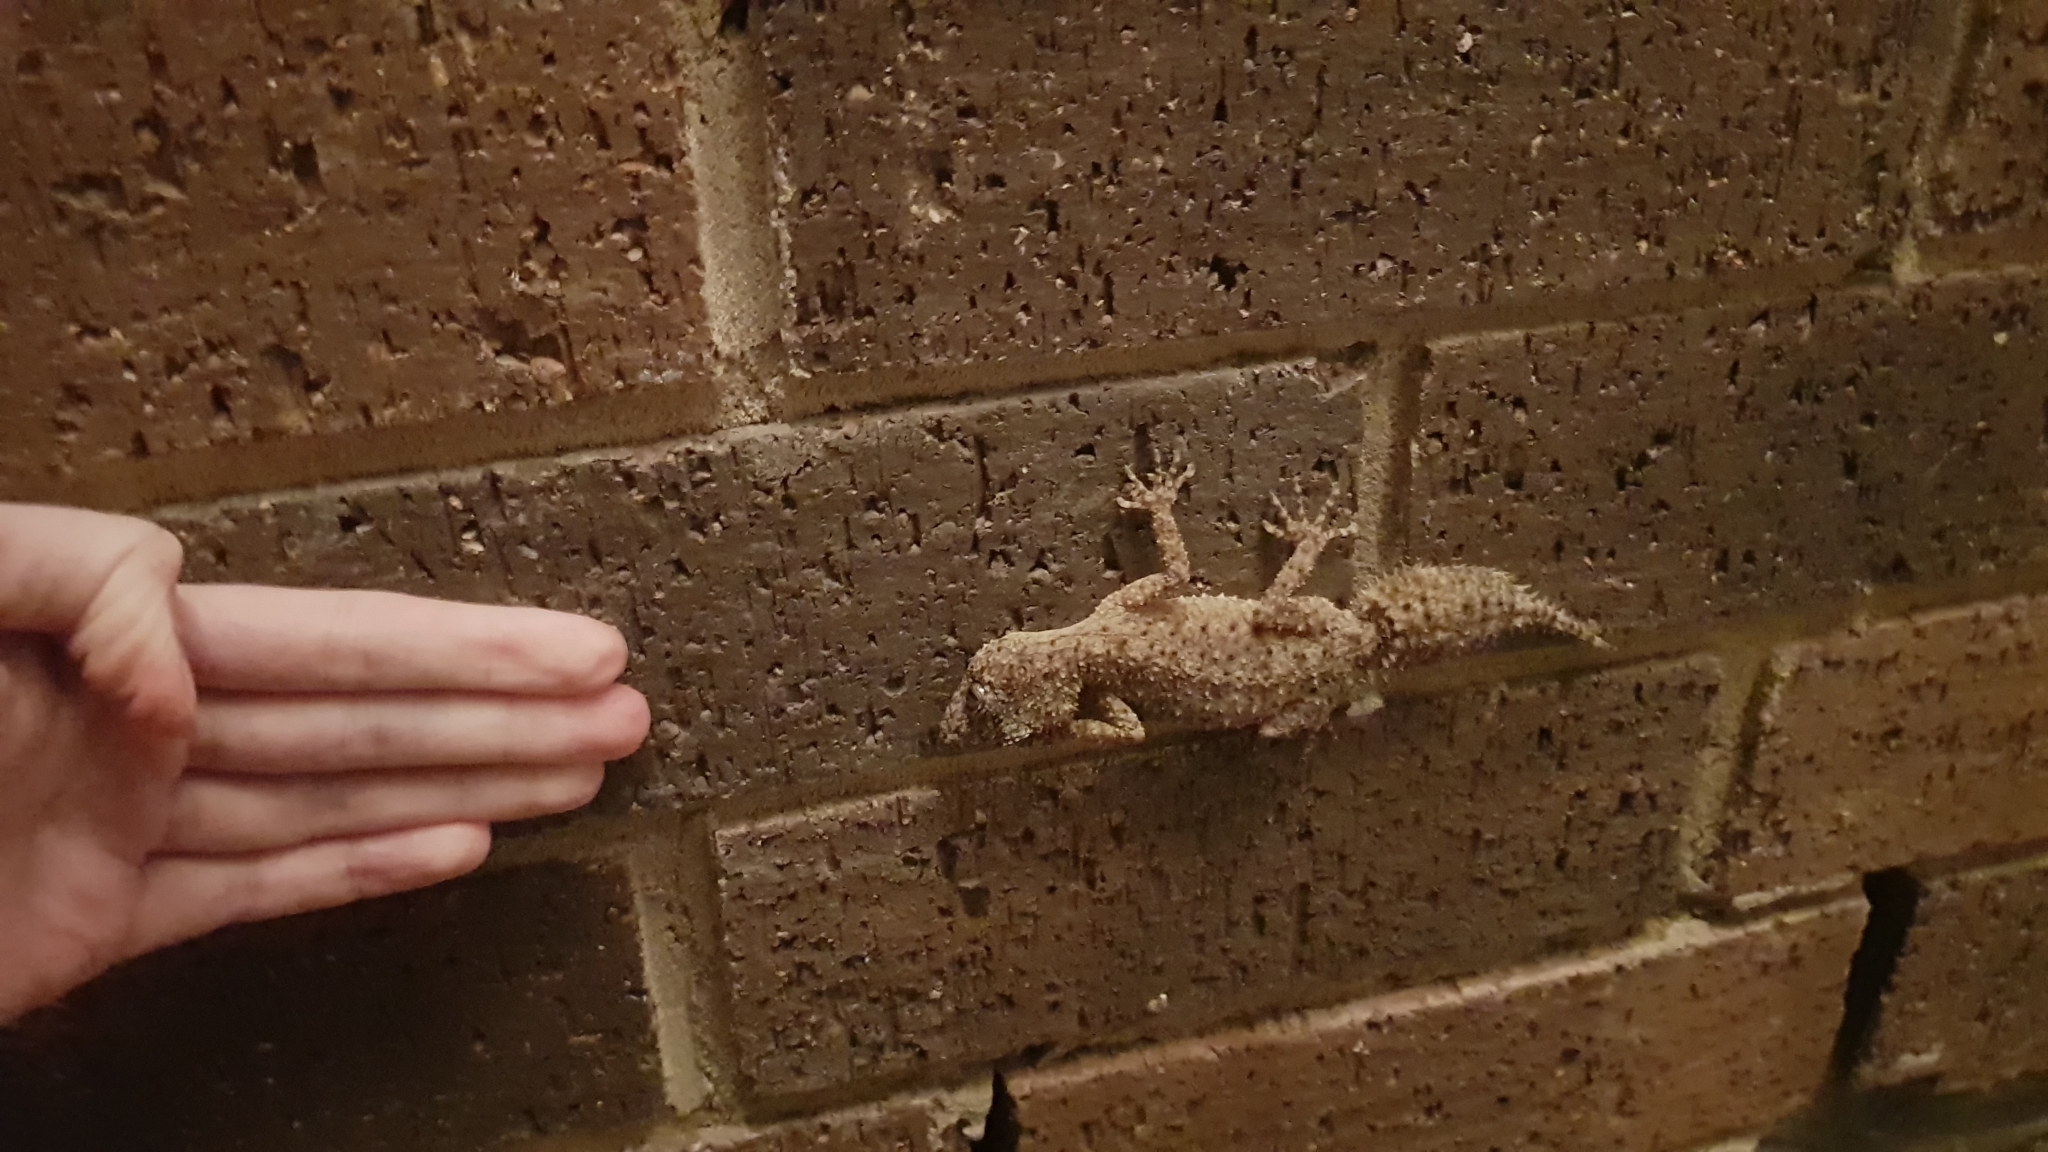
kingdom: Animalia
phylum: Chordata
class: Squamata
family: Carphodactylidae
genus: Phyllurus
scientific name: Phyllurus platurus
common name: Broad-tailed gecko
